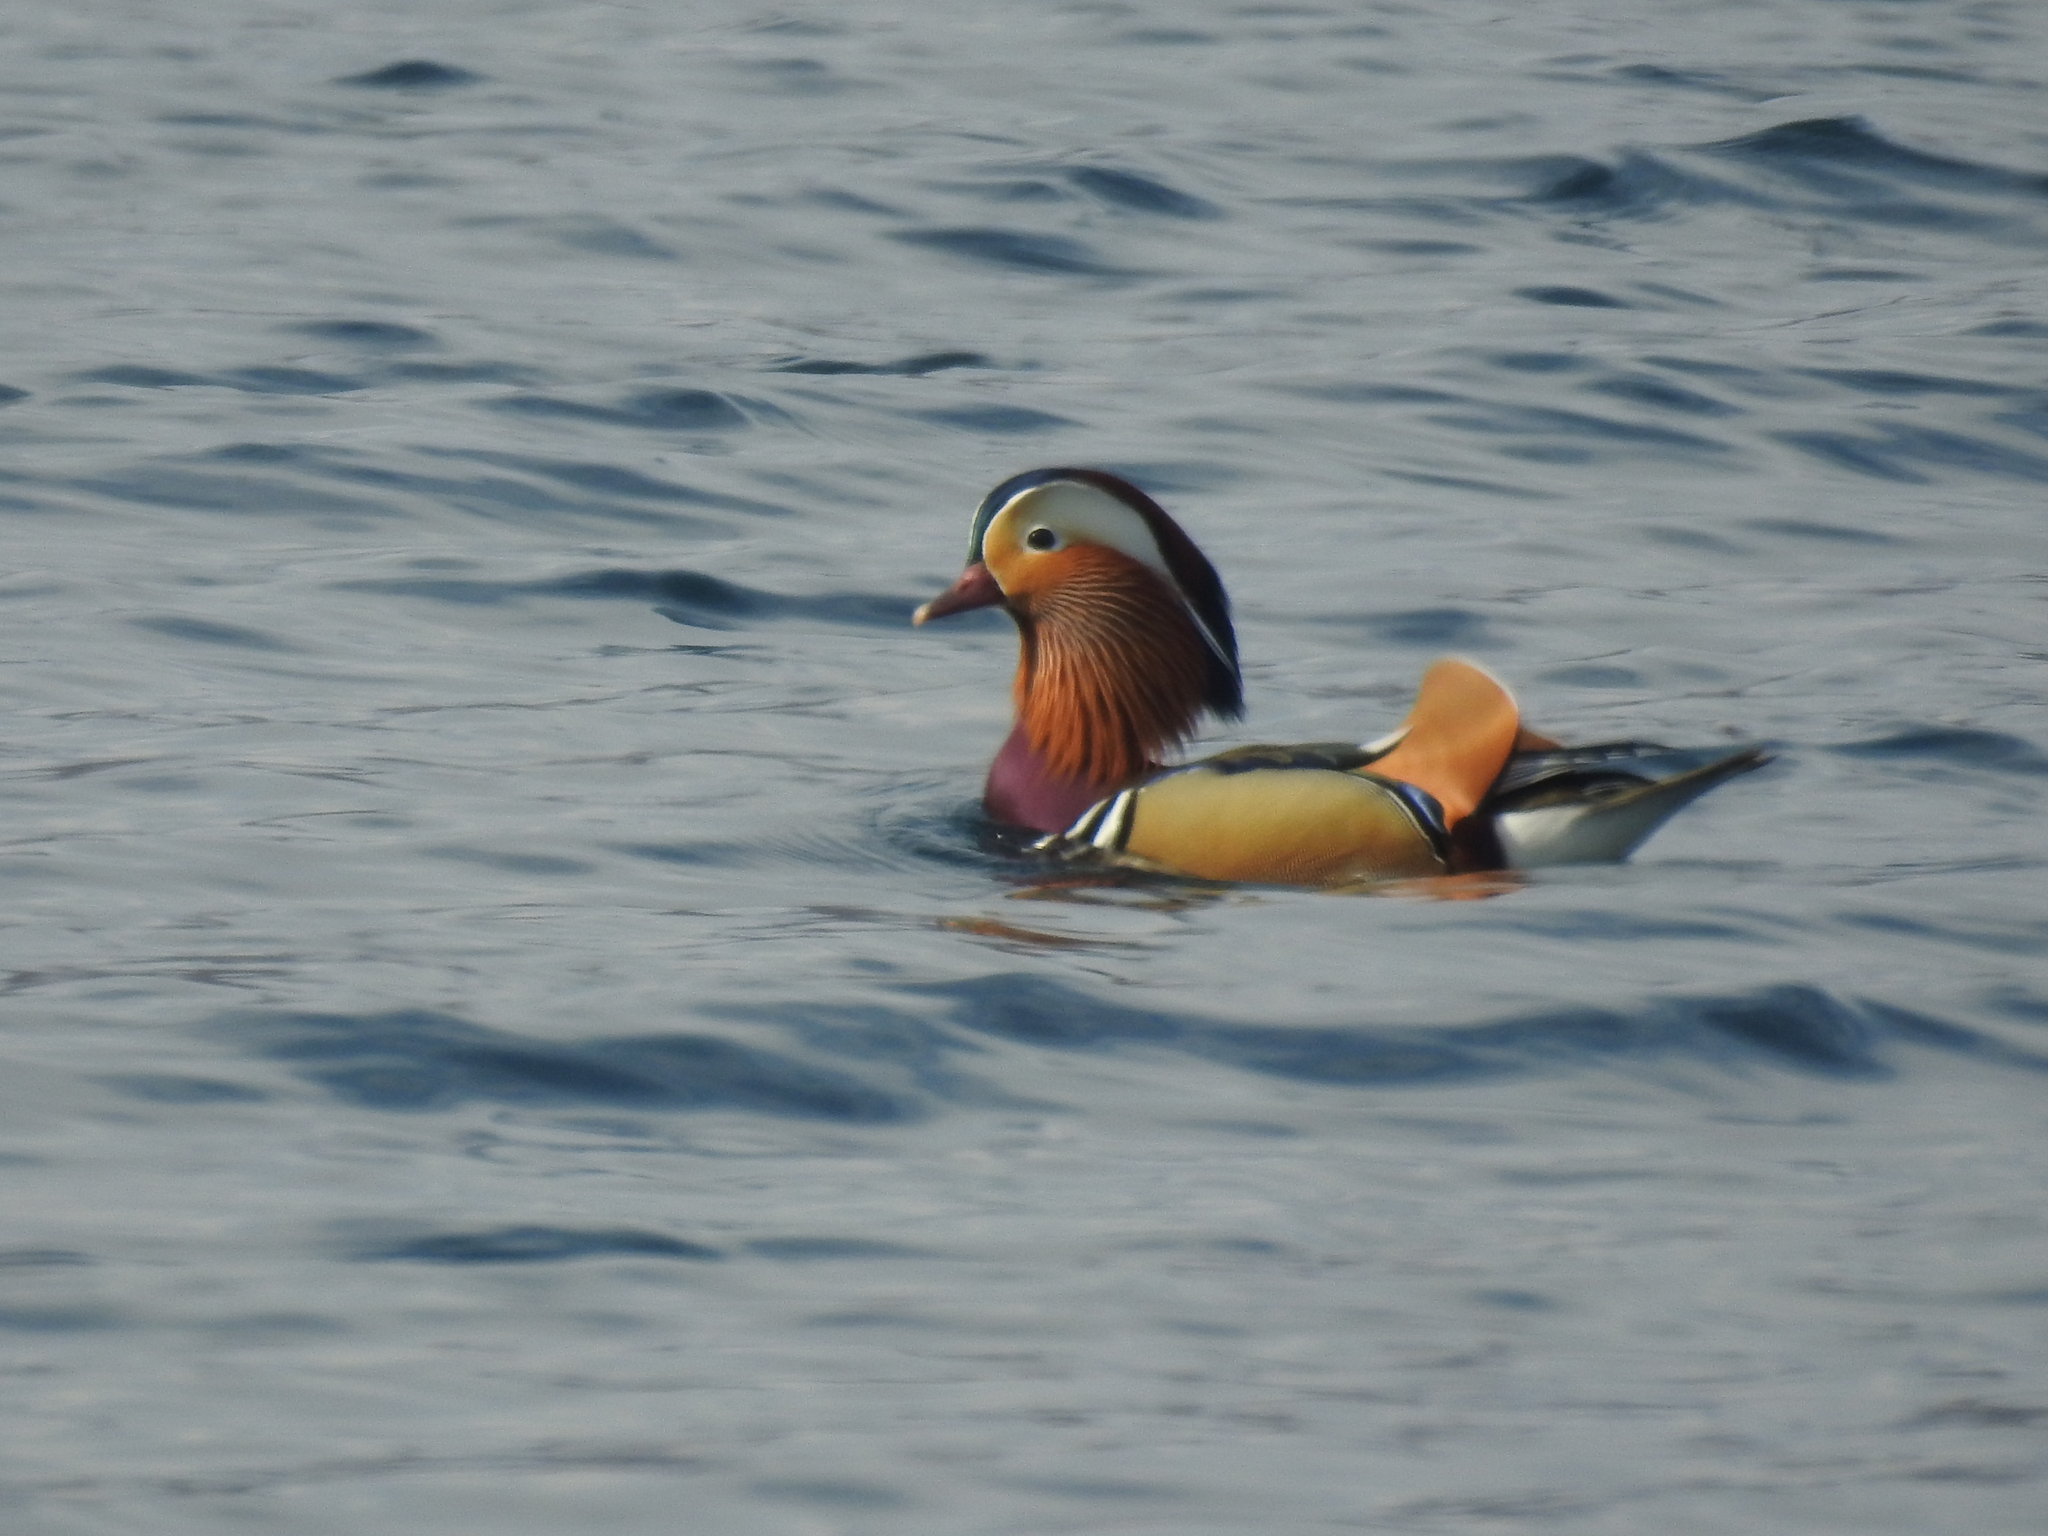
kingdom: Animalia
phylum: Chordata
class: Aves
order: Anseriformes
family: Anatidae
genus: Aix
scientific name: Aix galericulata
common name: Mandarin duck
